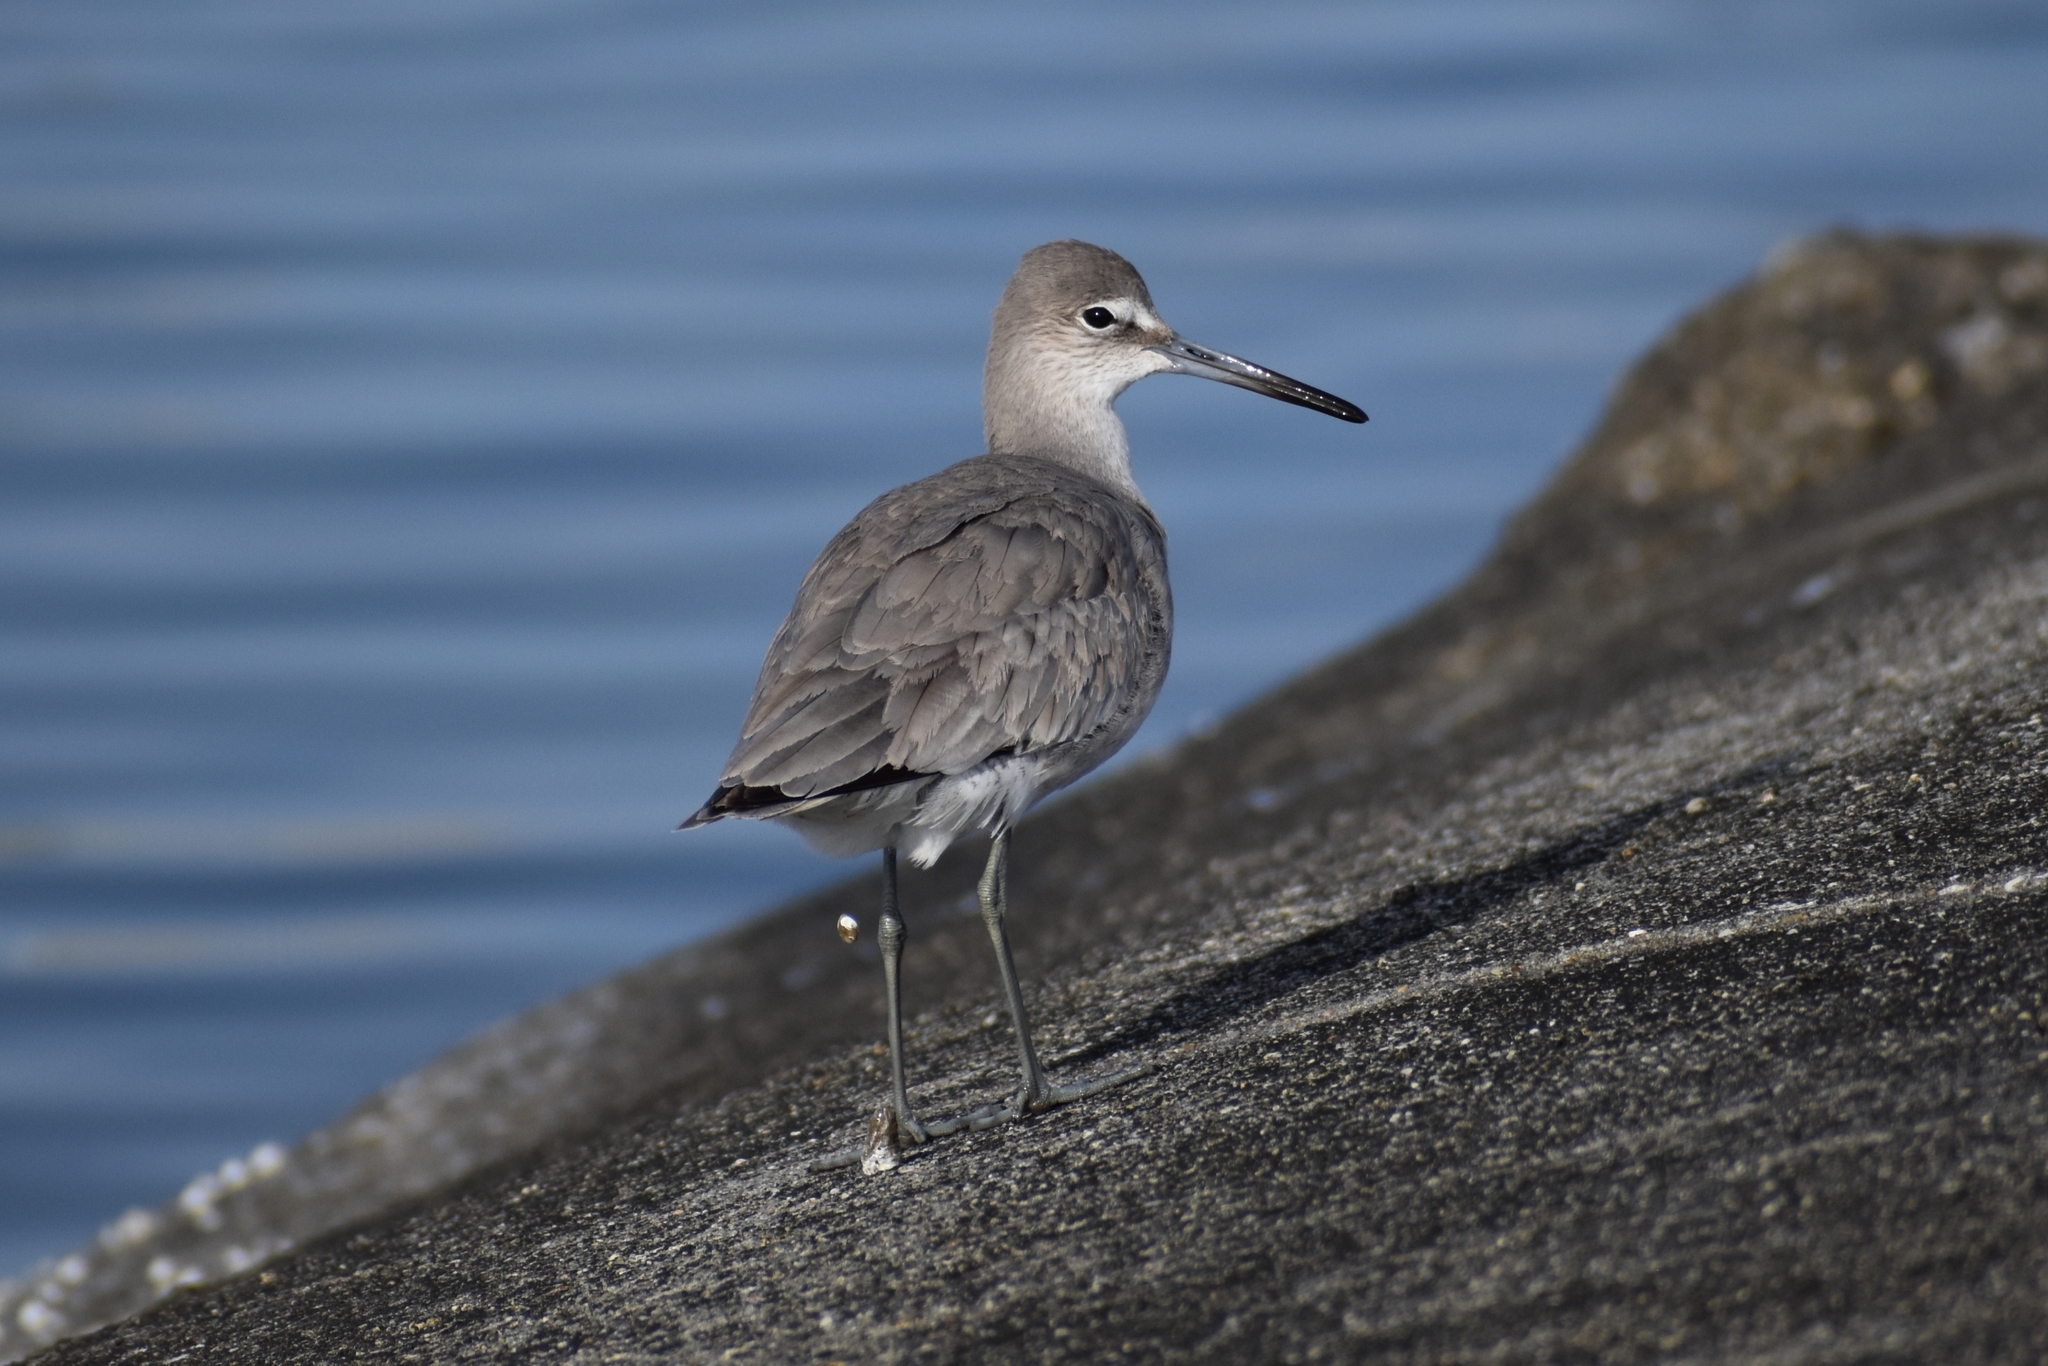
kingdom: Animalia
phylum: Chordata
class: Aves
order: Charadriiformes
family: Scolopacidae
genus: Tringa
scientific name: Tringa semipalmata
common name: Willet
